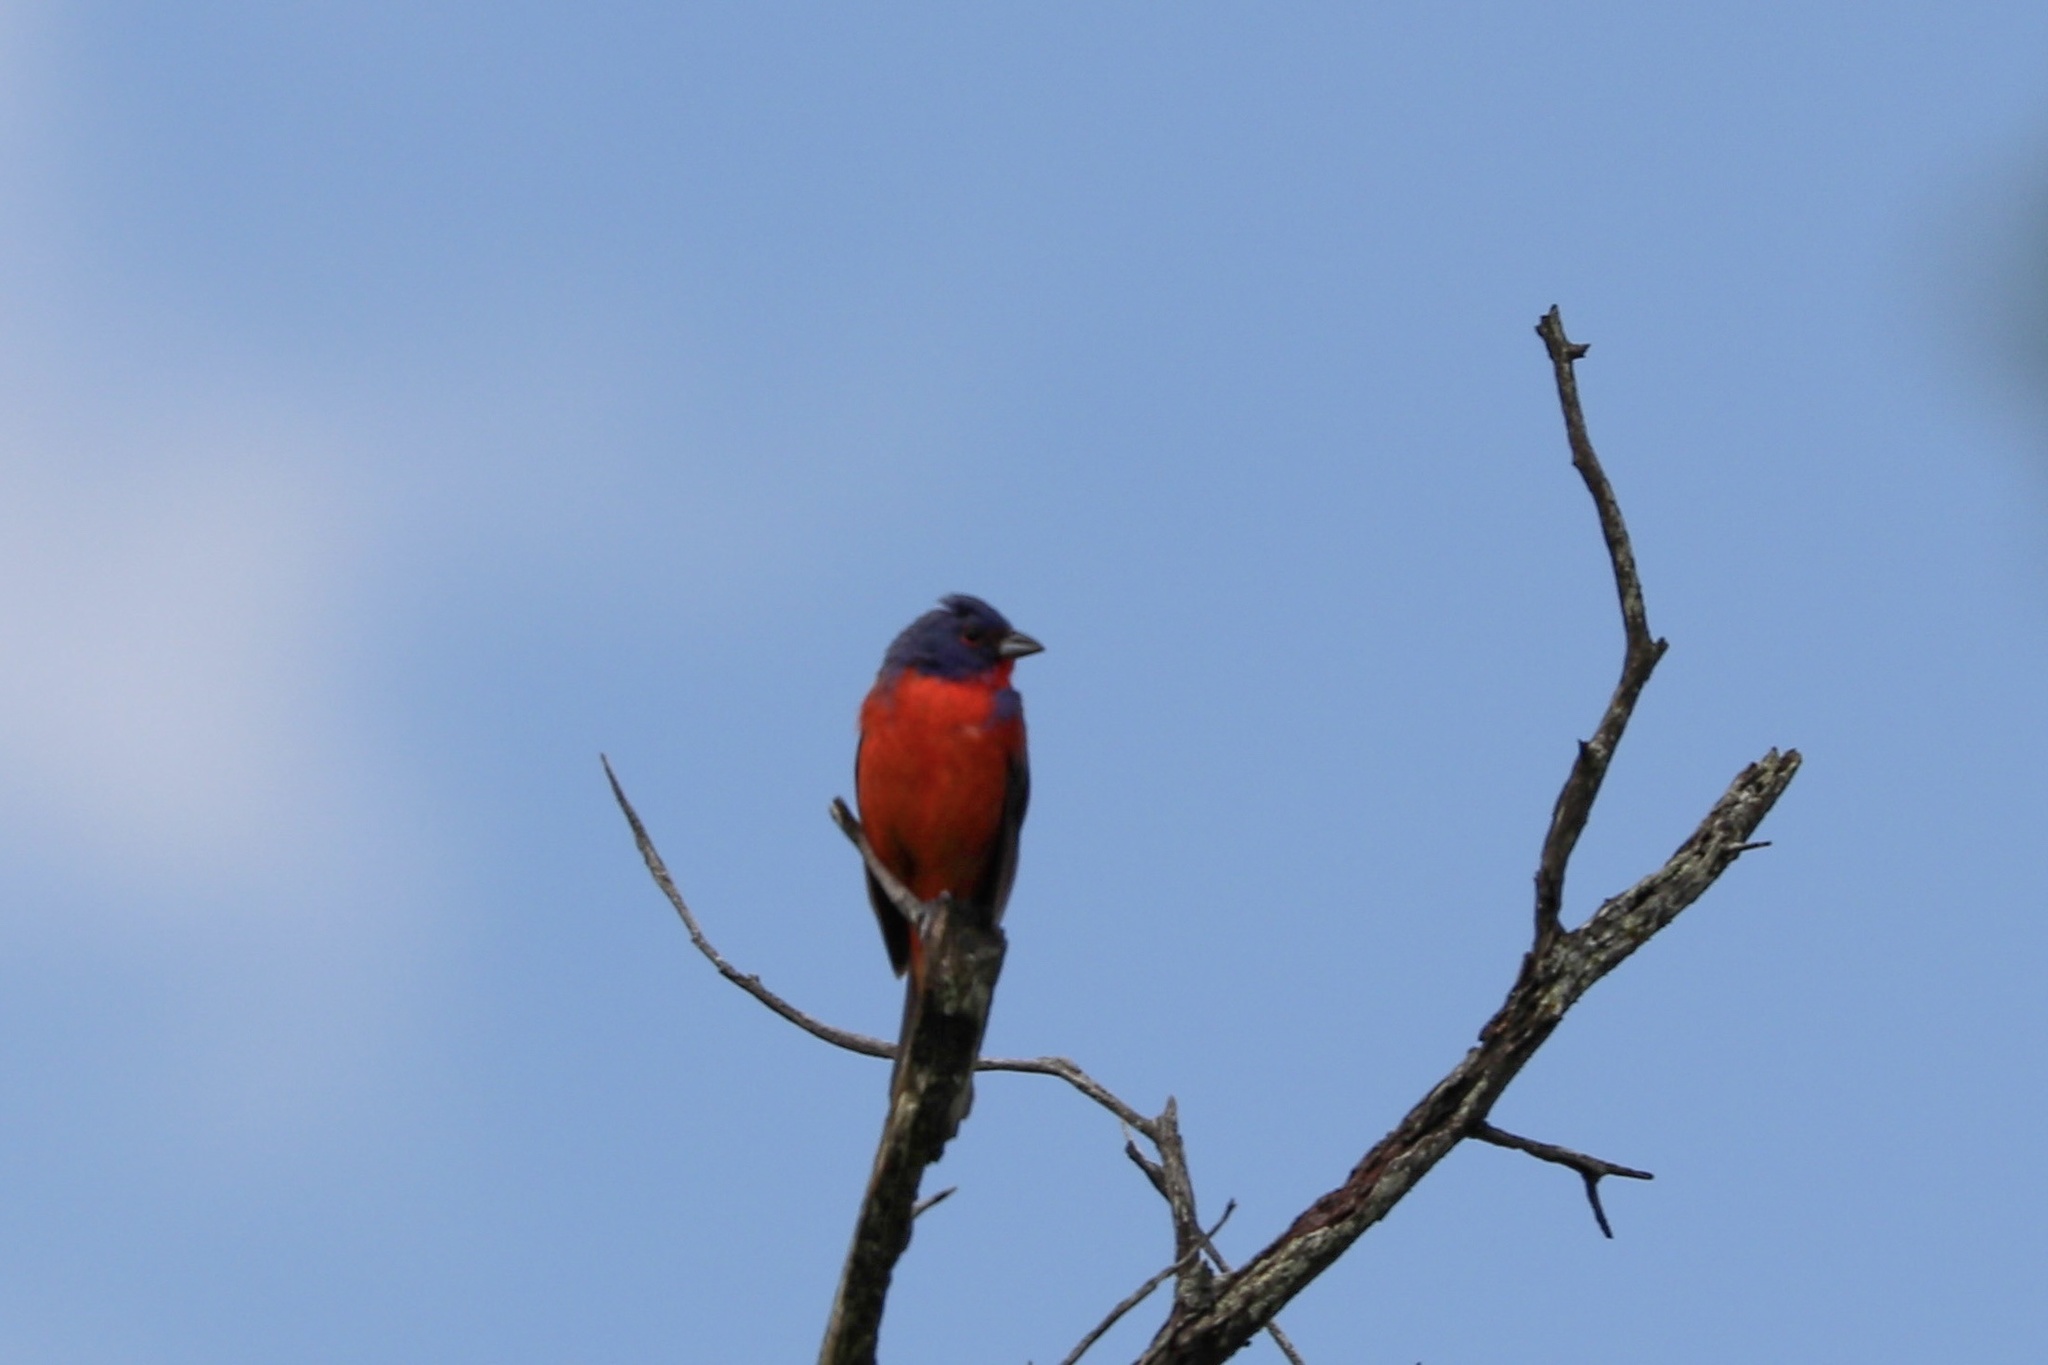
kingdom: Animalia
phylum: Chordata
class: Aves
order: Passeriformes
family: Cardinalidae
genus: Passerina
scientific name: Passerina ciris
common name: Painted bunting
